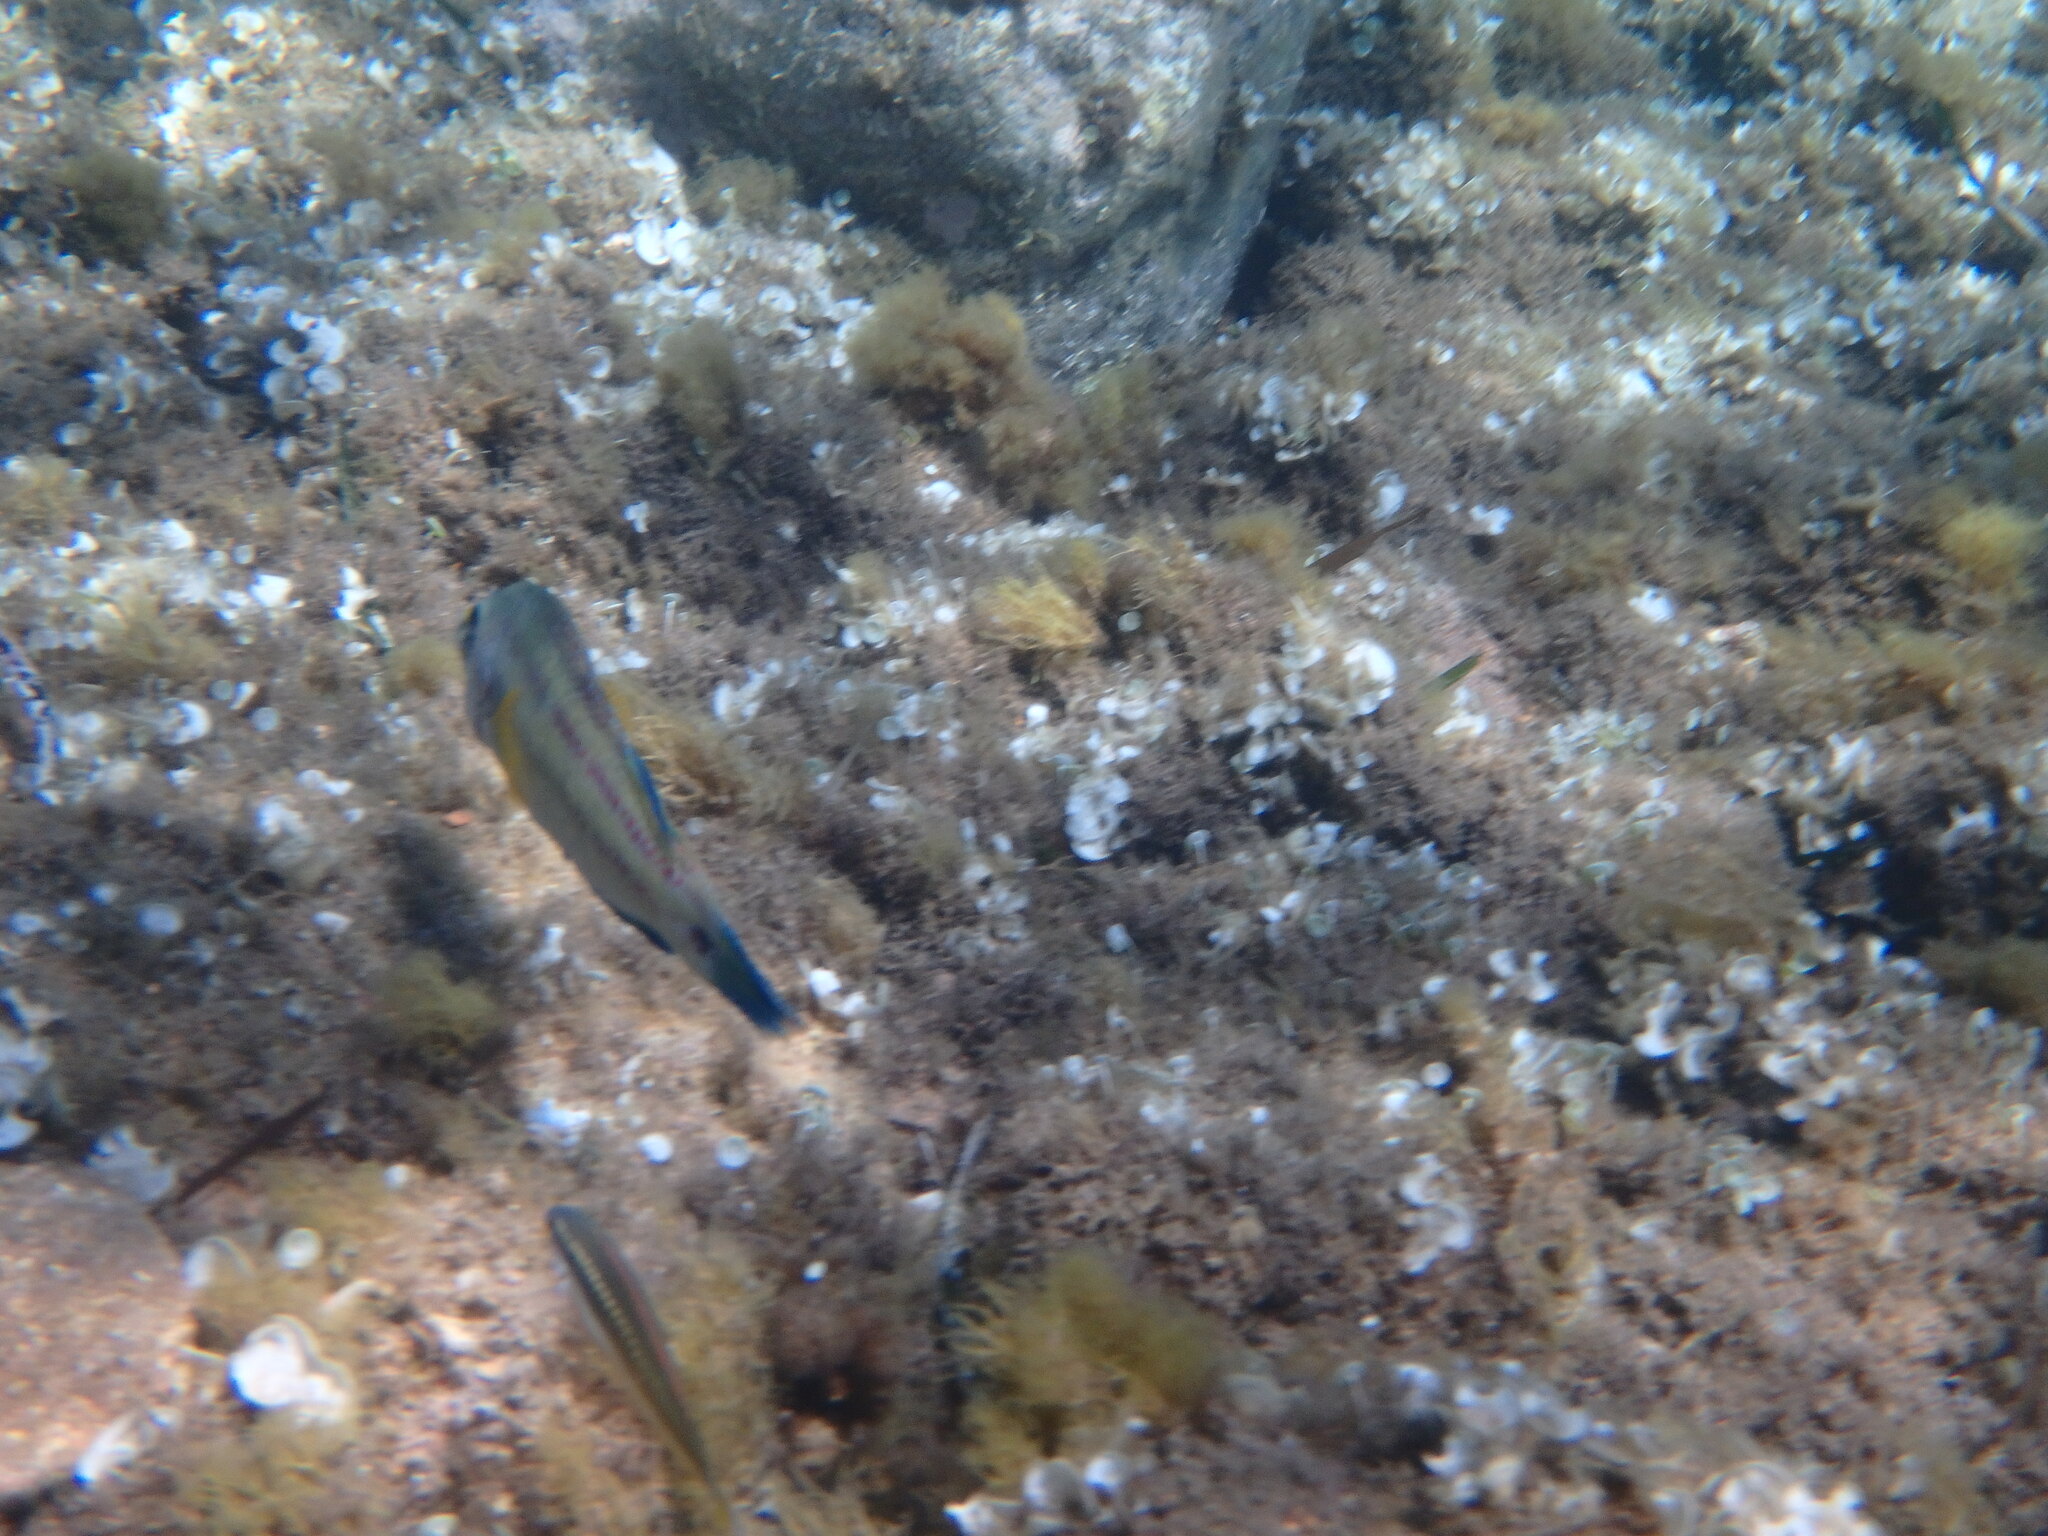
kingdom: Animalia
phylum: Chordata
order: Perciformes
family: Labridae
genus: Symphodus
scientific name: Symphodus tinca
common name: Peacock wrasse
